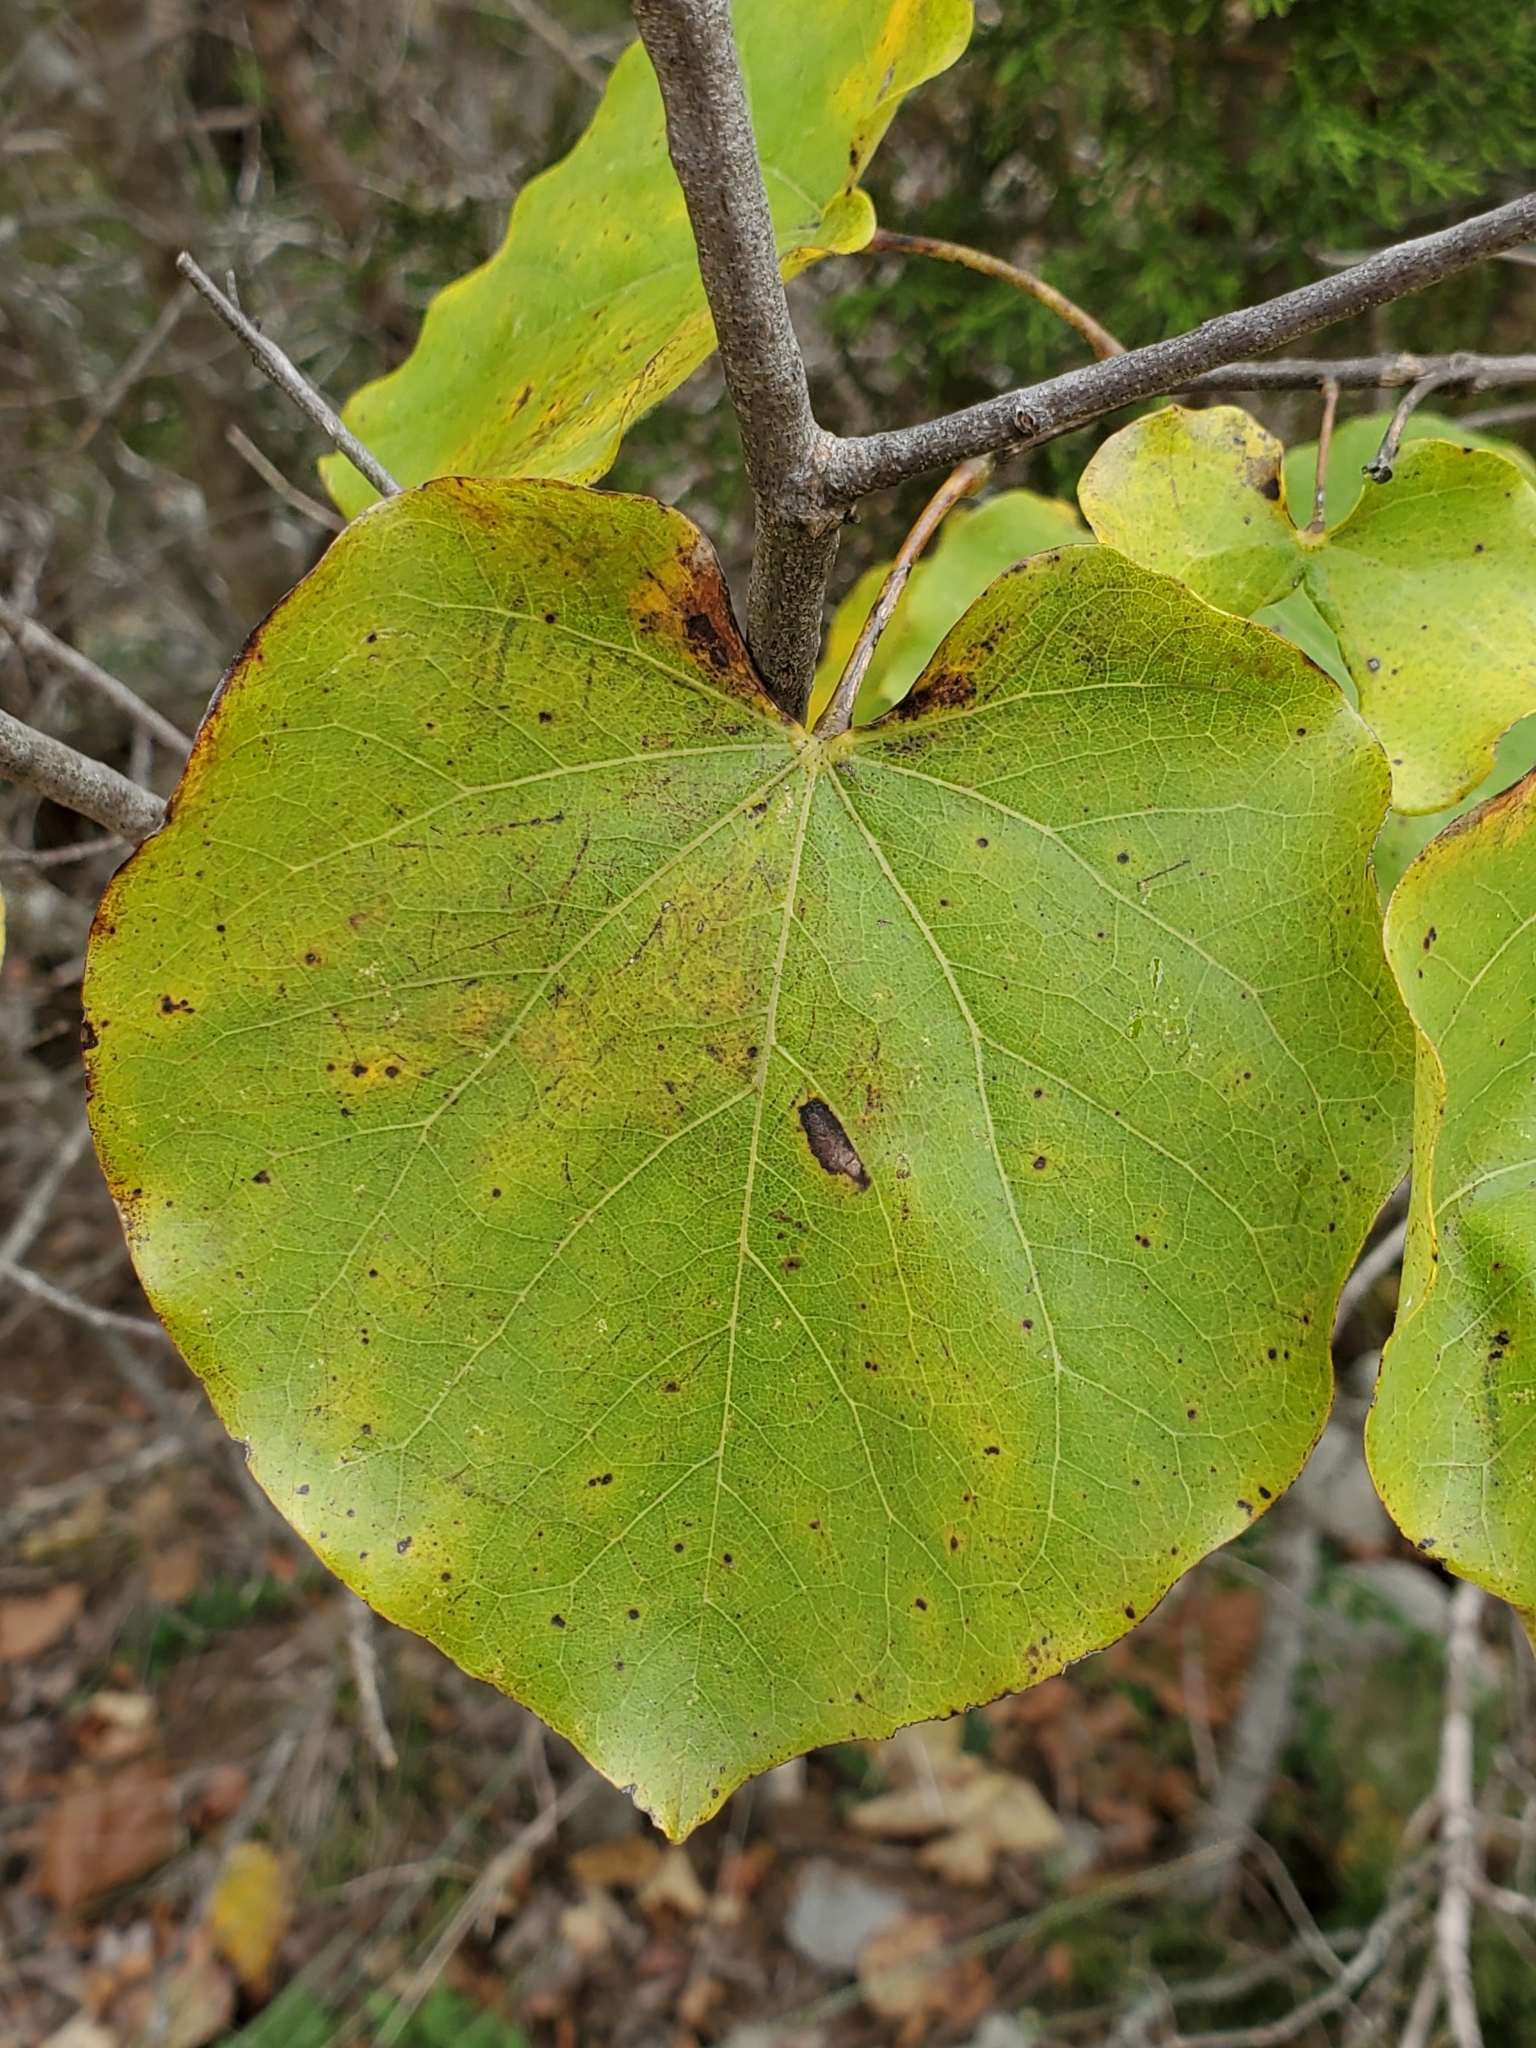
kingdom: Plantae
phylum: Tracheophyta
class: Magnoliopsida
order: Fabales
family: Fabaceae
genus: Cercis
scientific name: Cercis canadensis
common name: Eastern redbud
